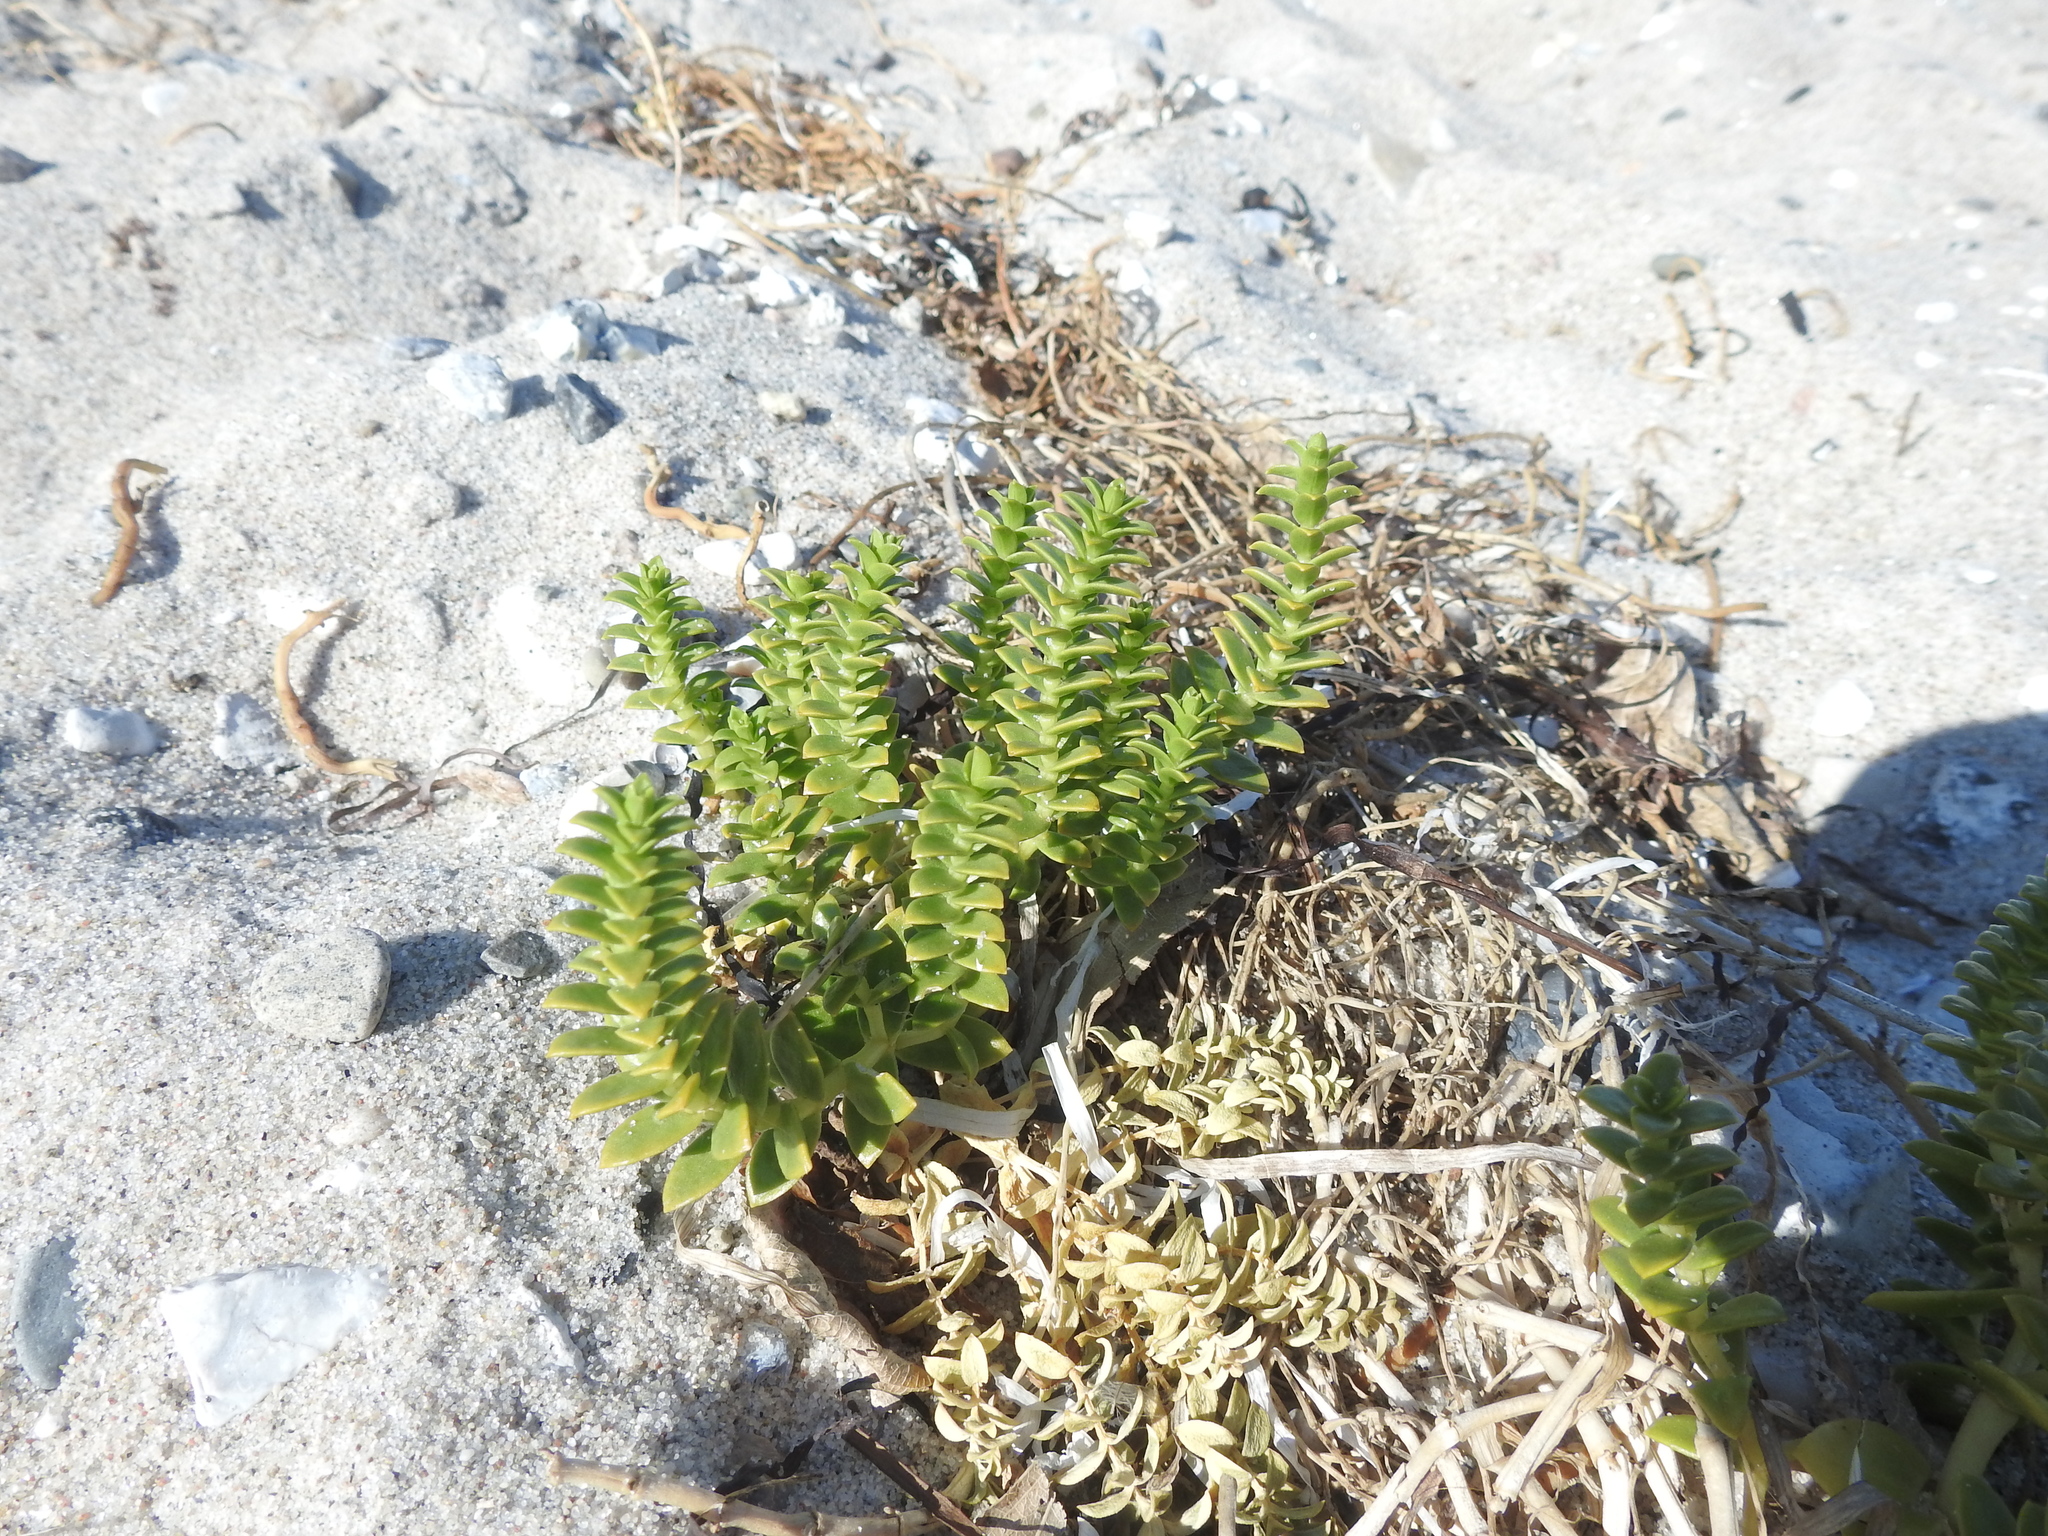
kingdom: Plantae
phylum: Tracheophyta
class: Magnoliopsida
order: Caryophyllales
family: Caryophyllaceae
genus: Honckenya
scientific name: Honckenya peploides
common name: Sea sandwort
